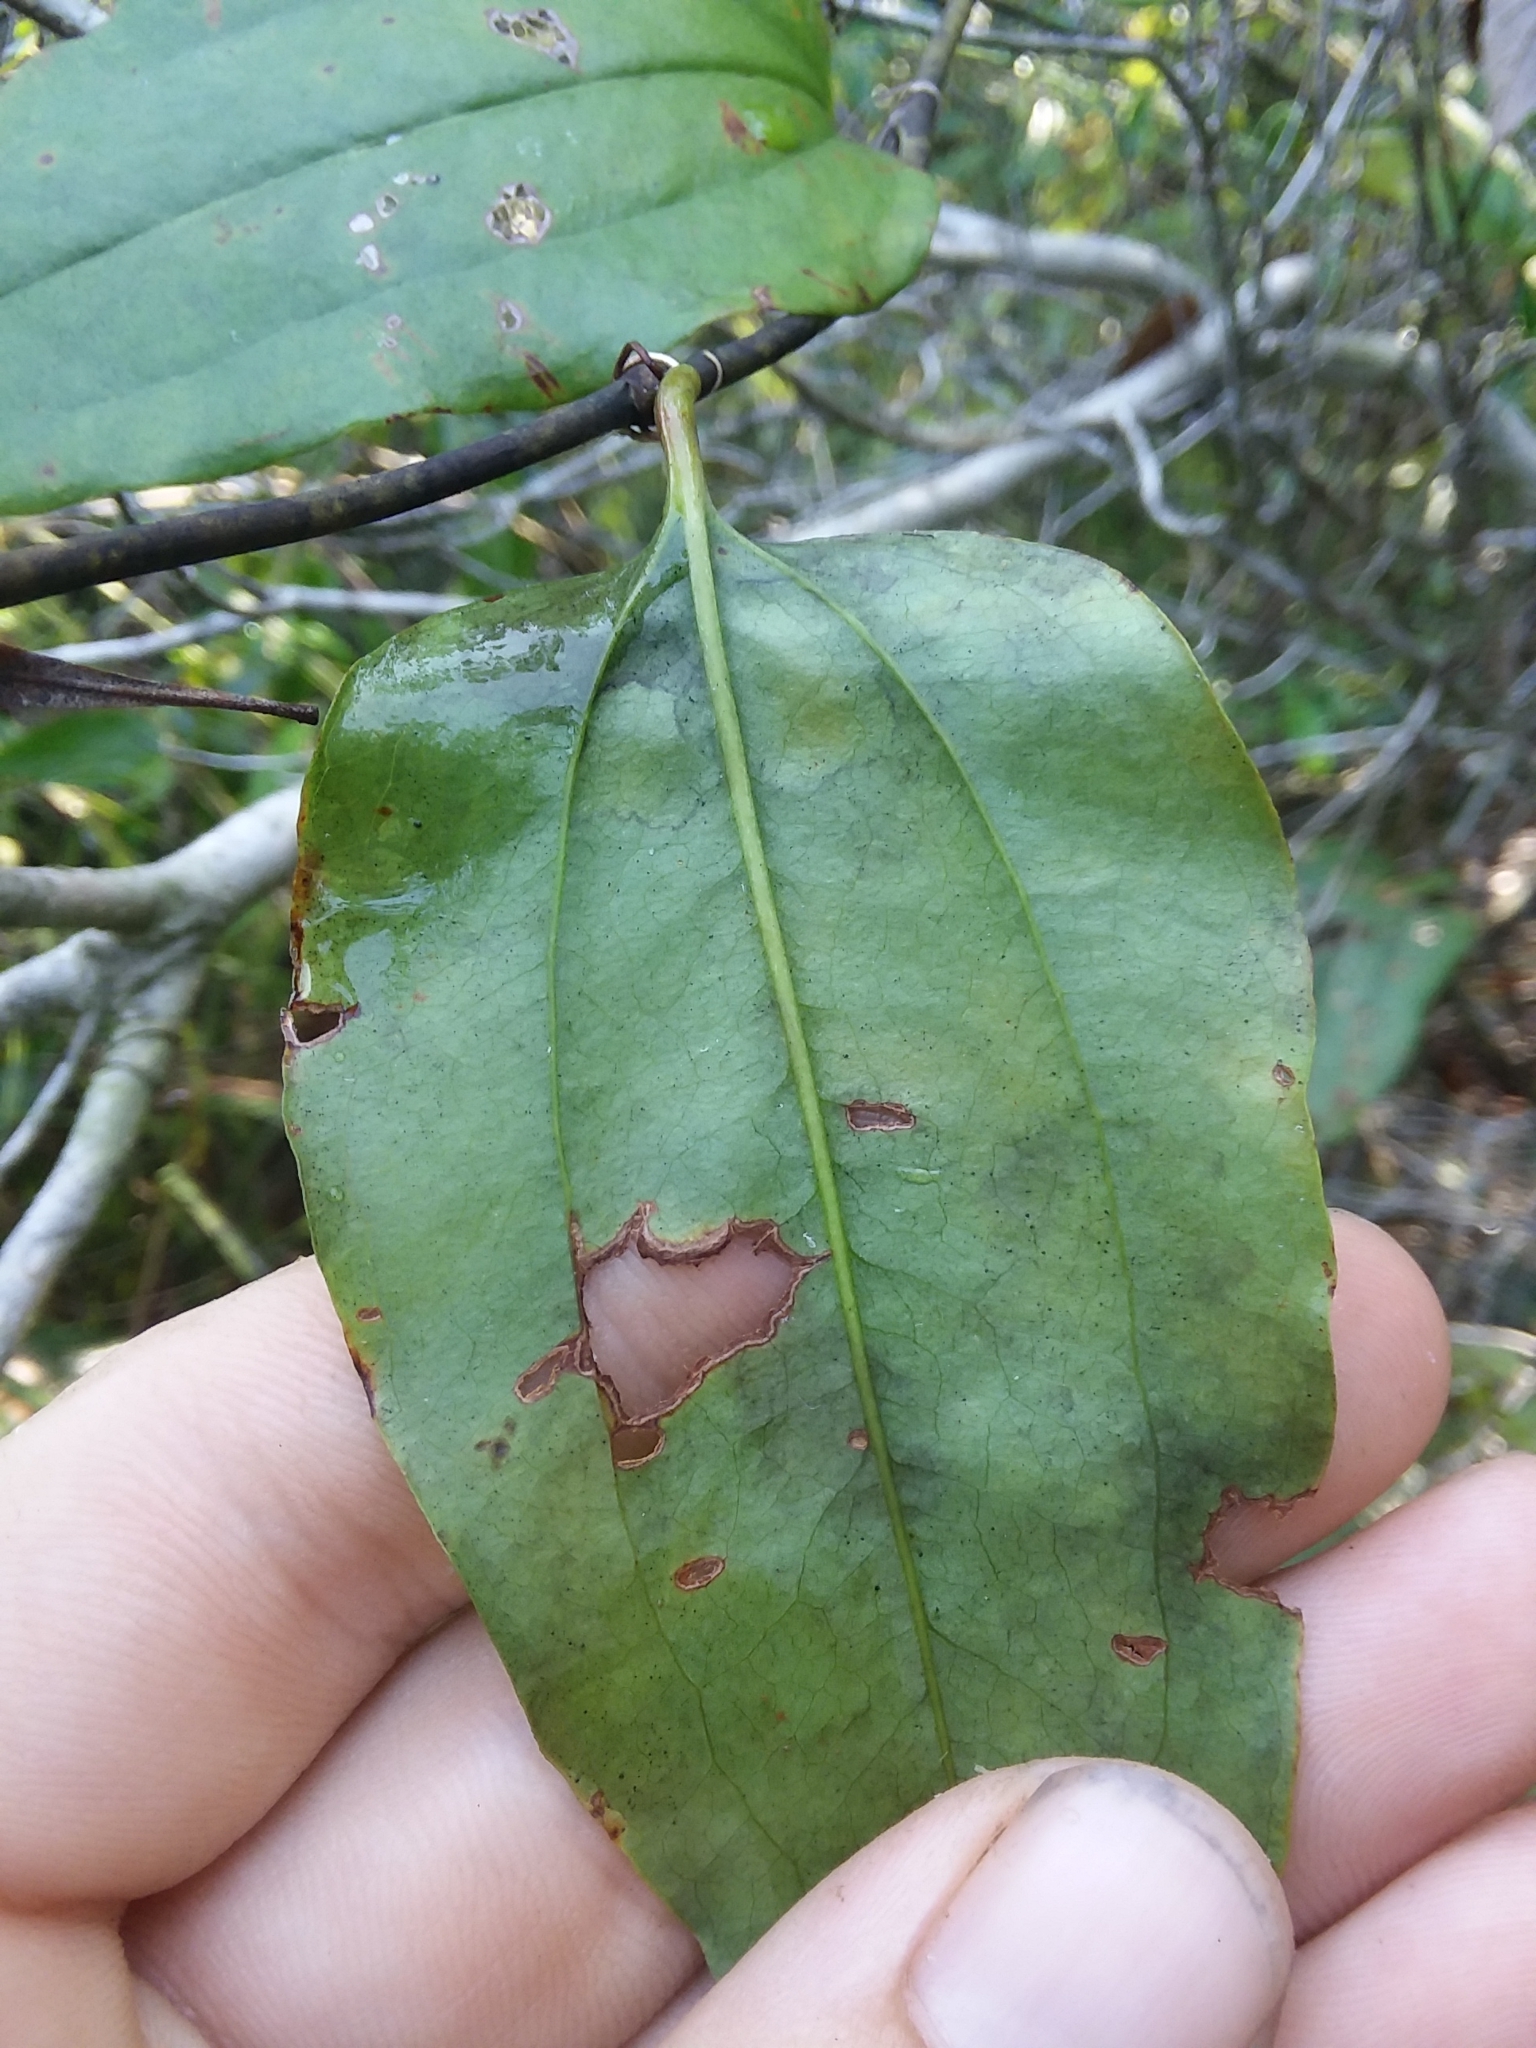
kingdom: Plantae
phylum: Tracheophyta
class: Liliopsida
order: Liliales
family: Smilacaceae
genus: Smilax
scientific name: Smilax walteri
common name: Coral greenbrier
